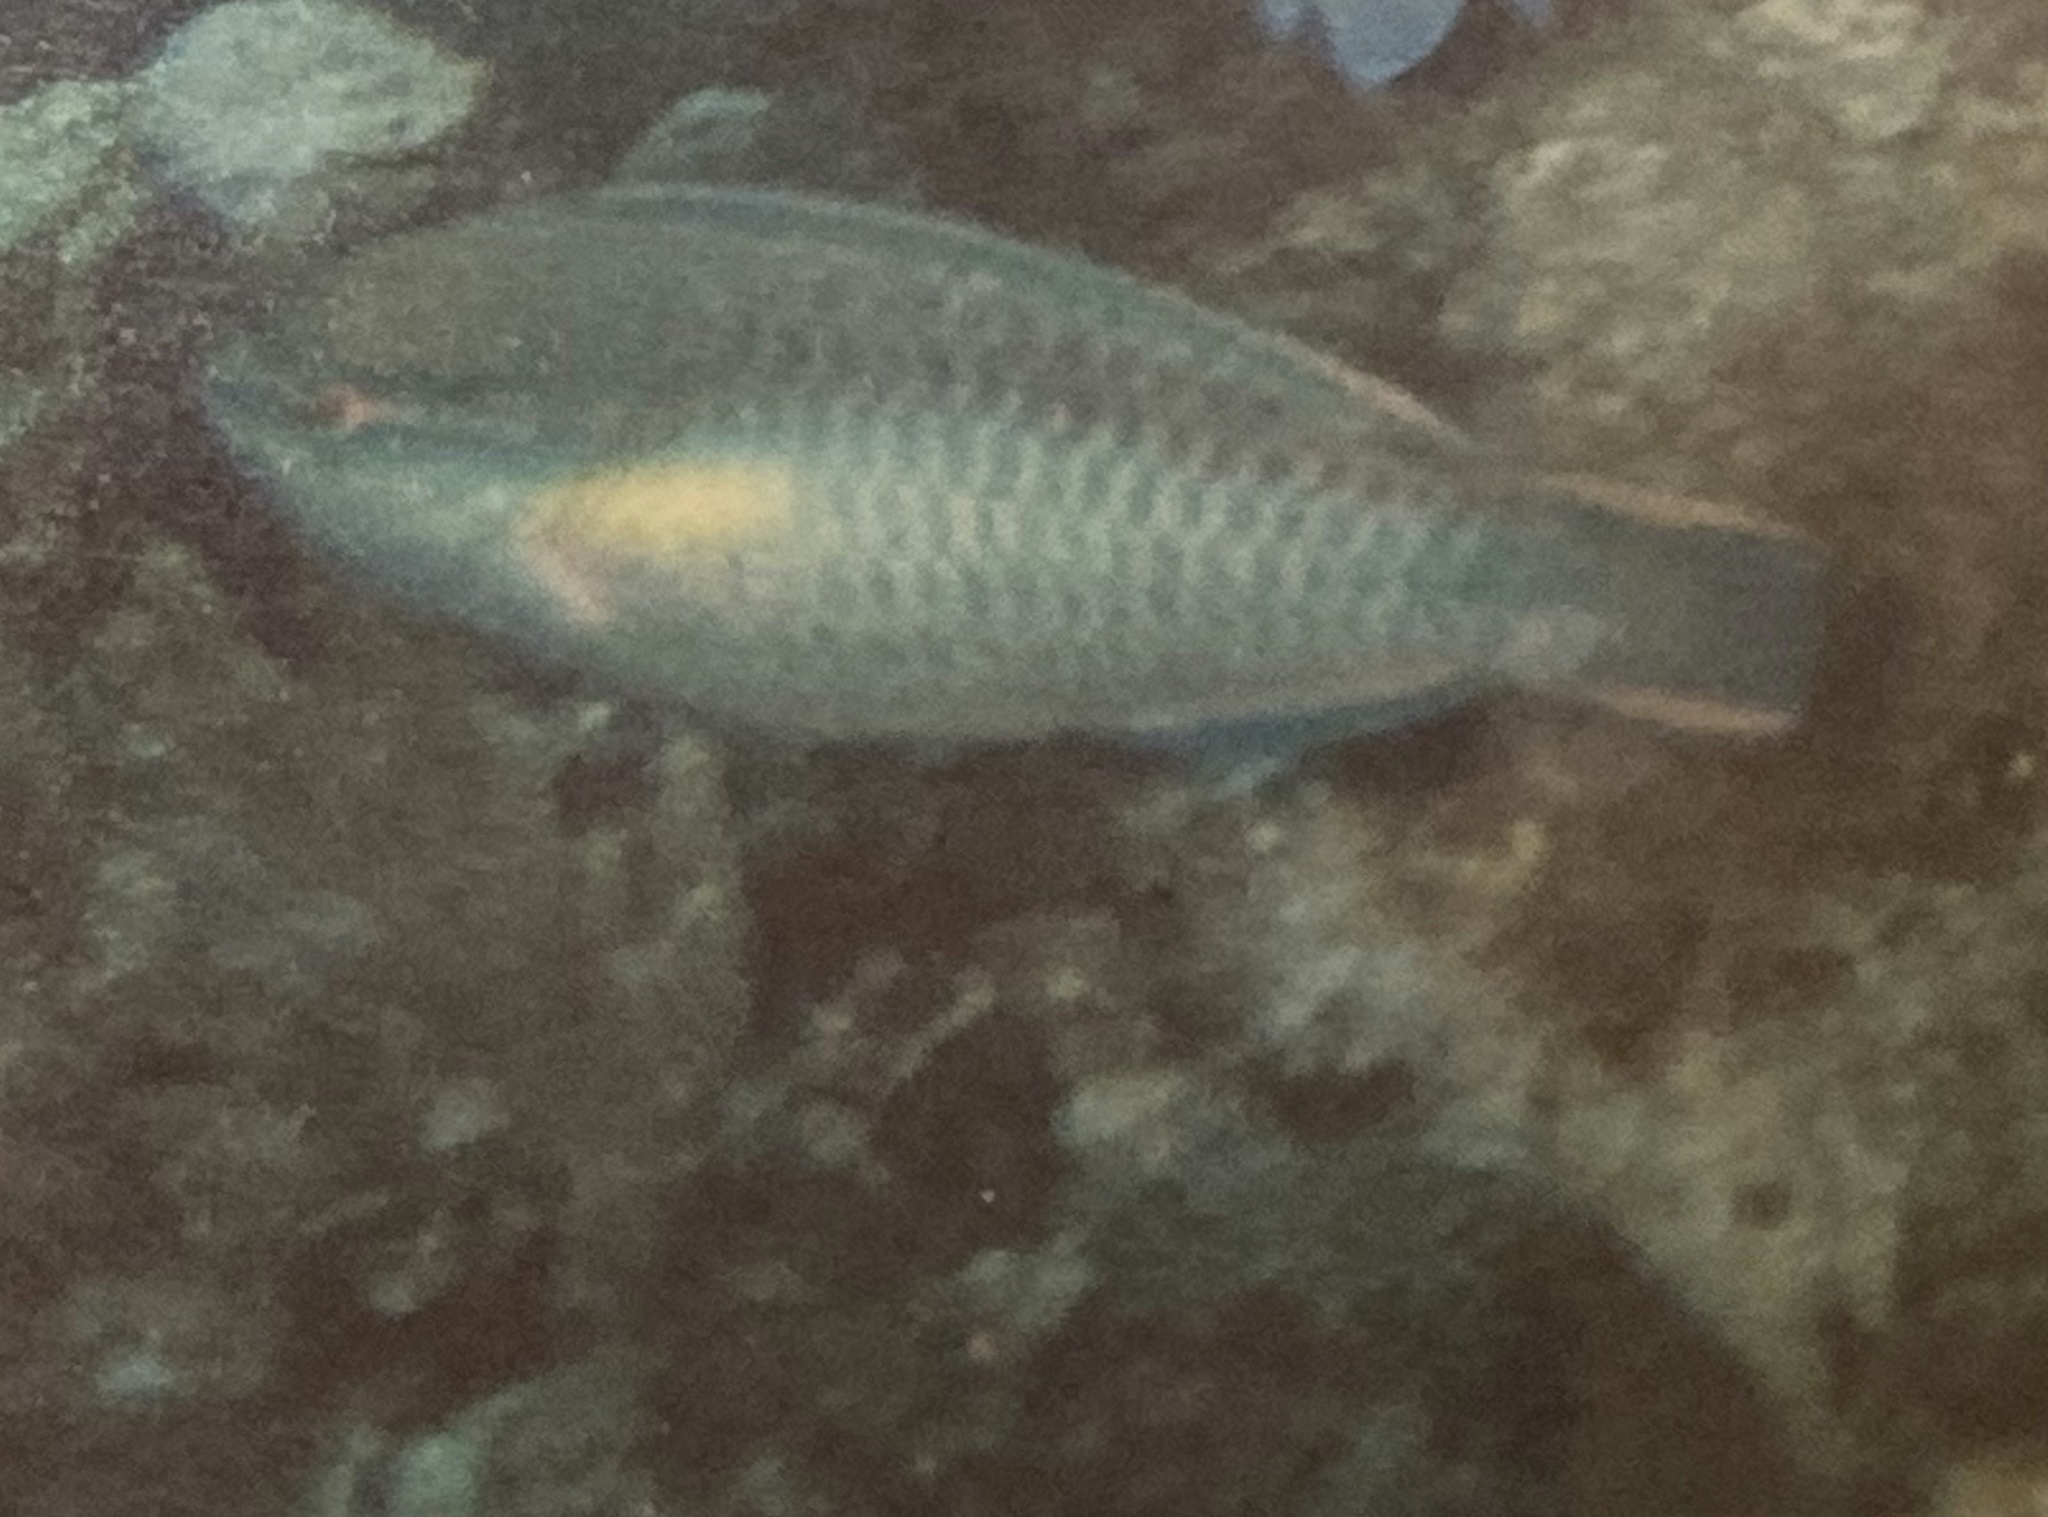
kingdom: Animalia
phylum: Chordata
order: Perciformes
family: Scaridae
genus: Scarus
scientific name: Scarus taeniopterus
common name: Princess parrotfish
